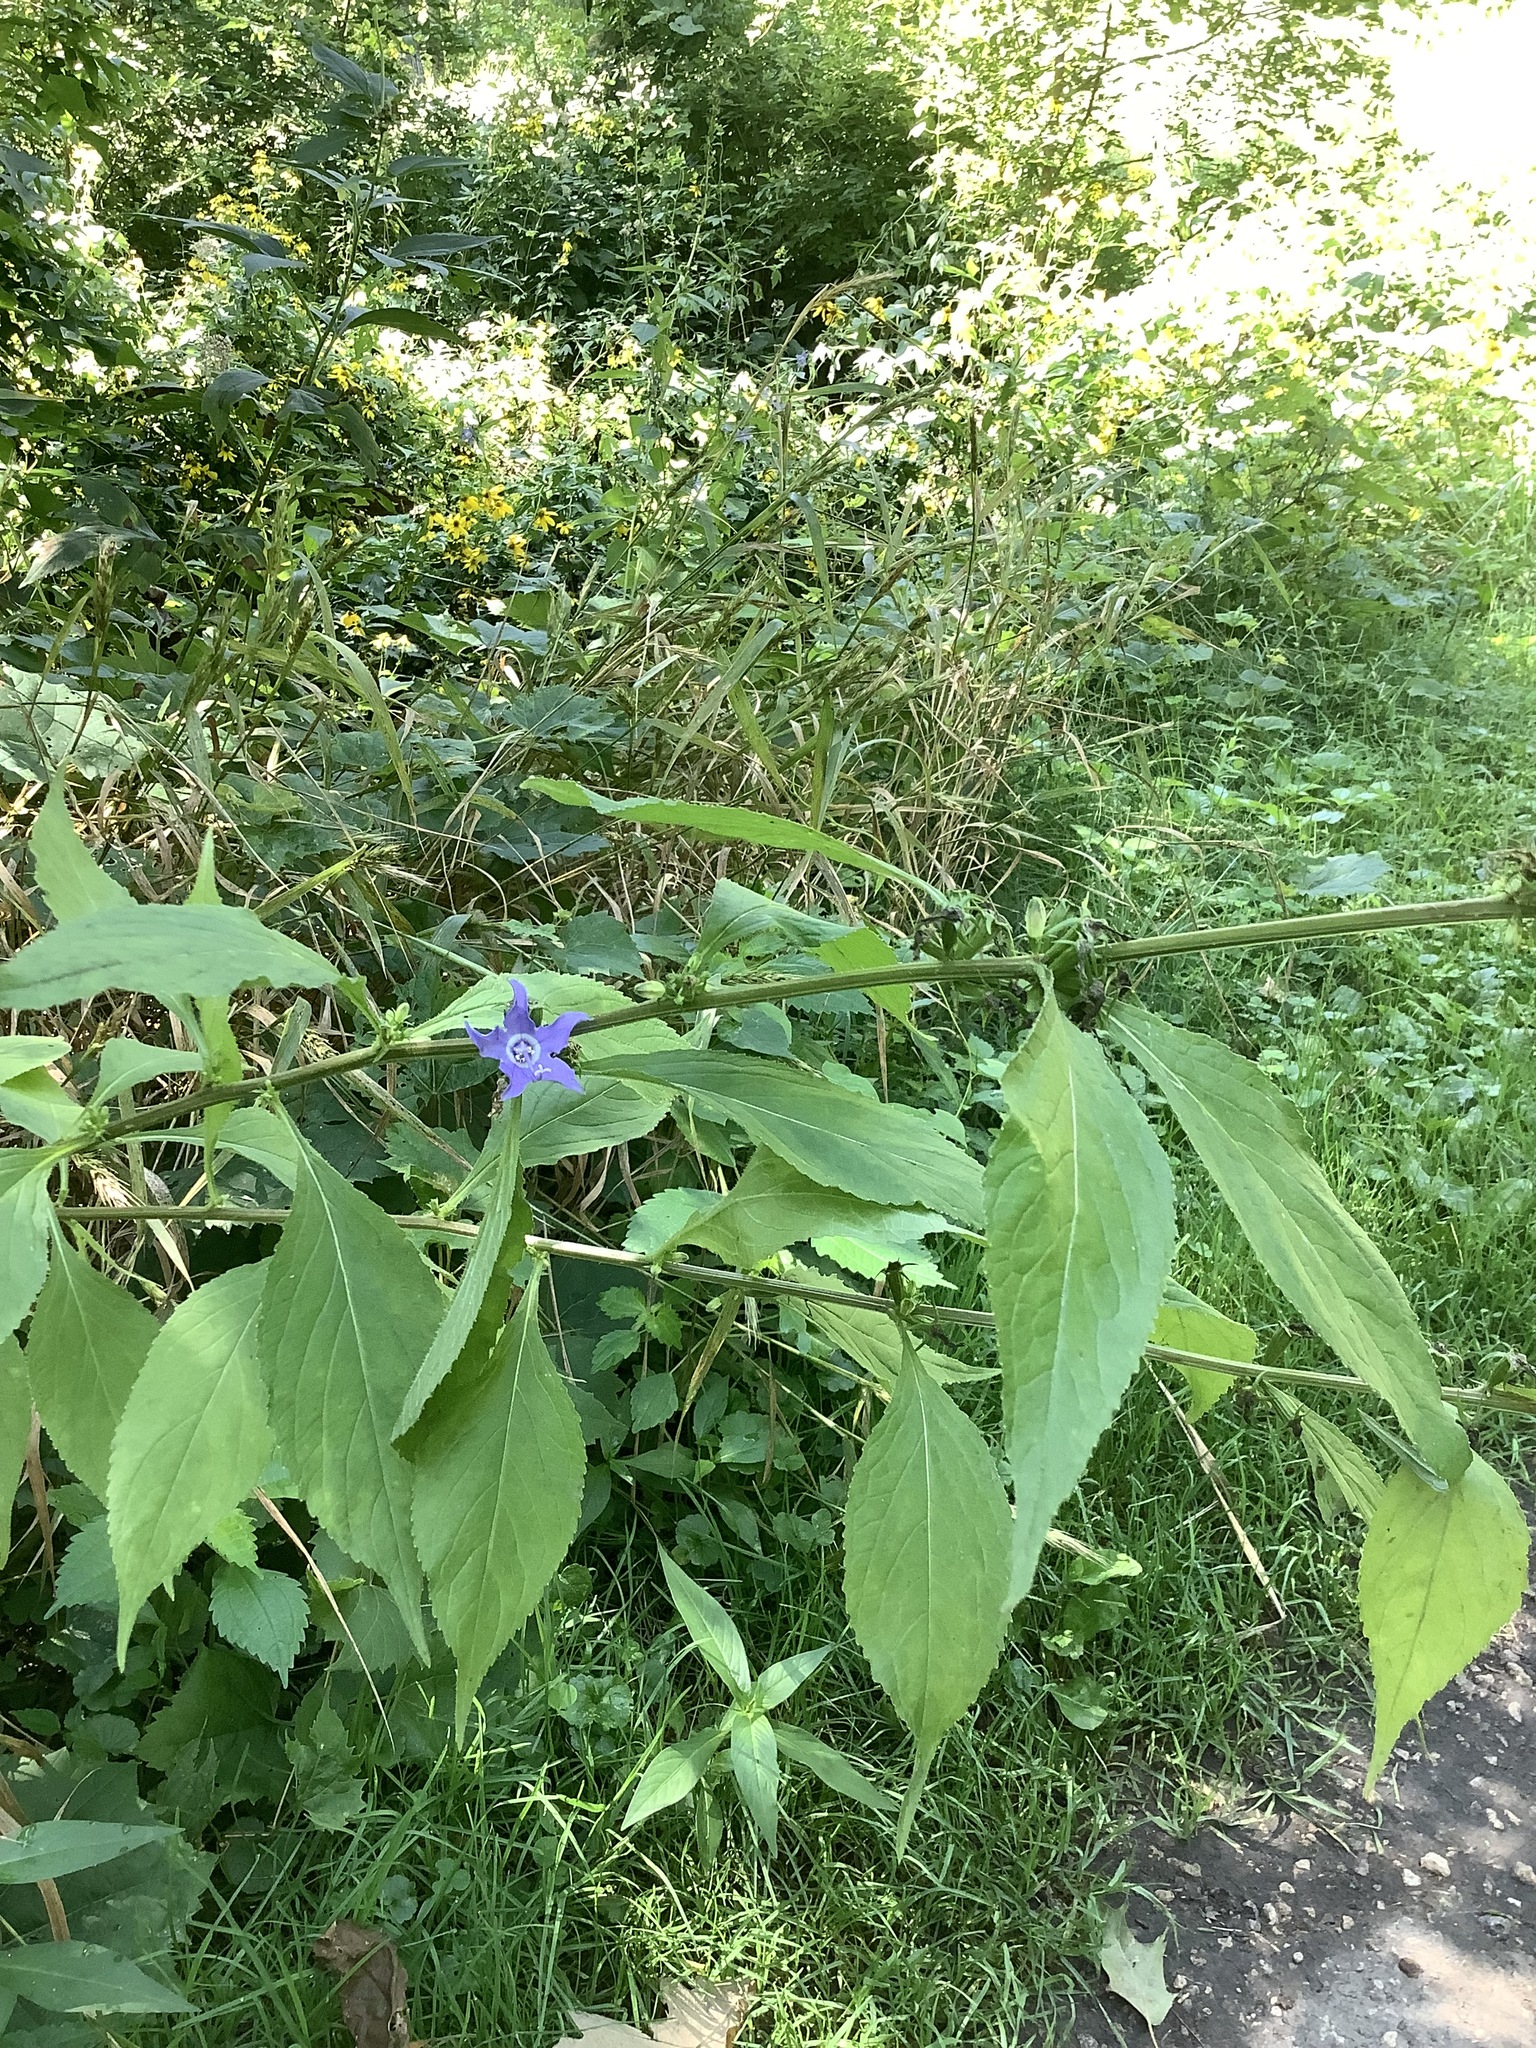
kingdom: Plantae
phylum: Tracheophyta
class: Magnoliopsida
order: Asterales
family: Campanulaceae
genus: Campanulastrum
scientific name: Campanulastrum americanum
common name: American bellflower
